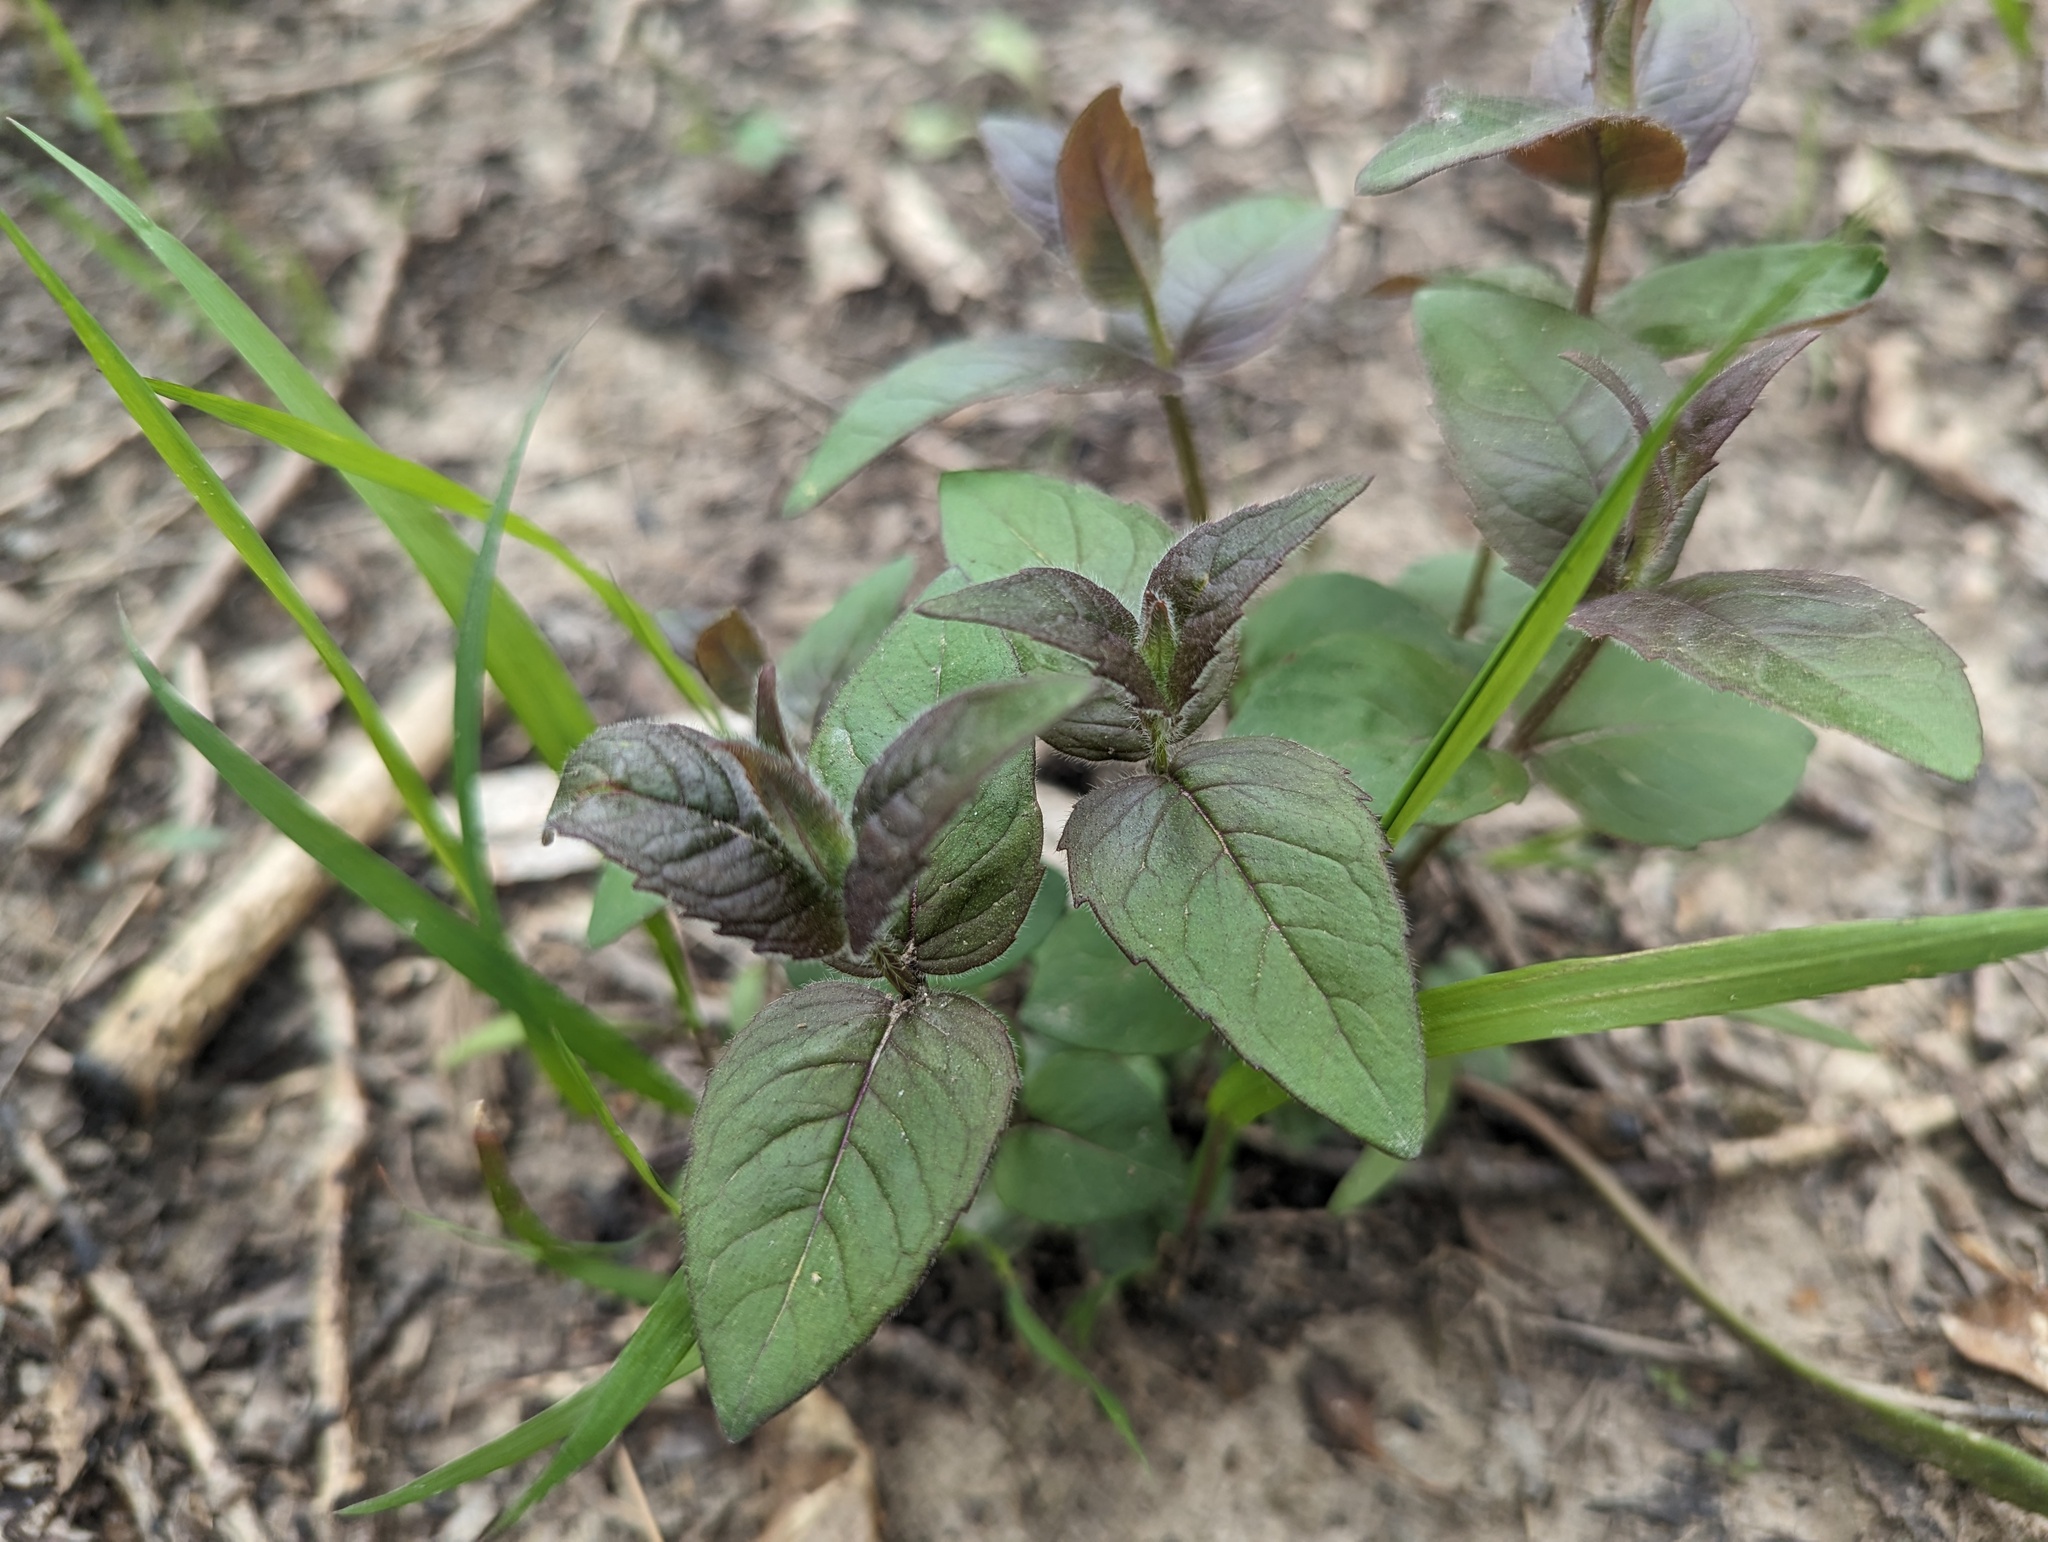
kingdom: Plantae
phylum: Tracheophyta
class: Magnoliopsida
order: Lamiales
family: Lamiaceae
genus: Monarda
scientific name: Monarda bradburiana
